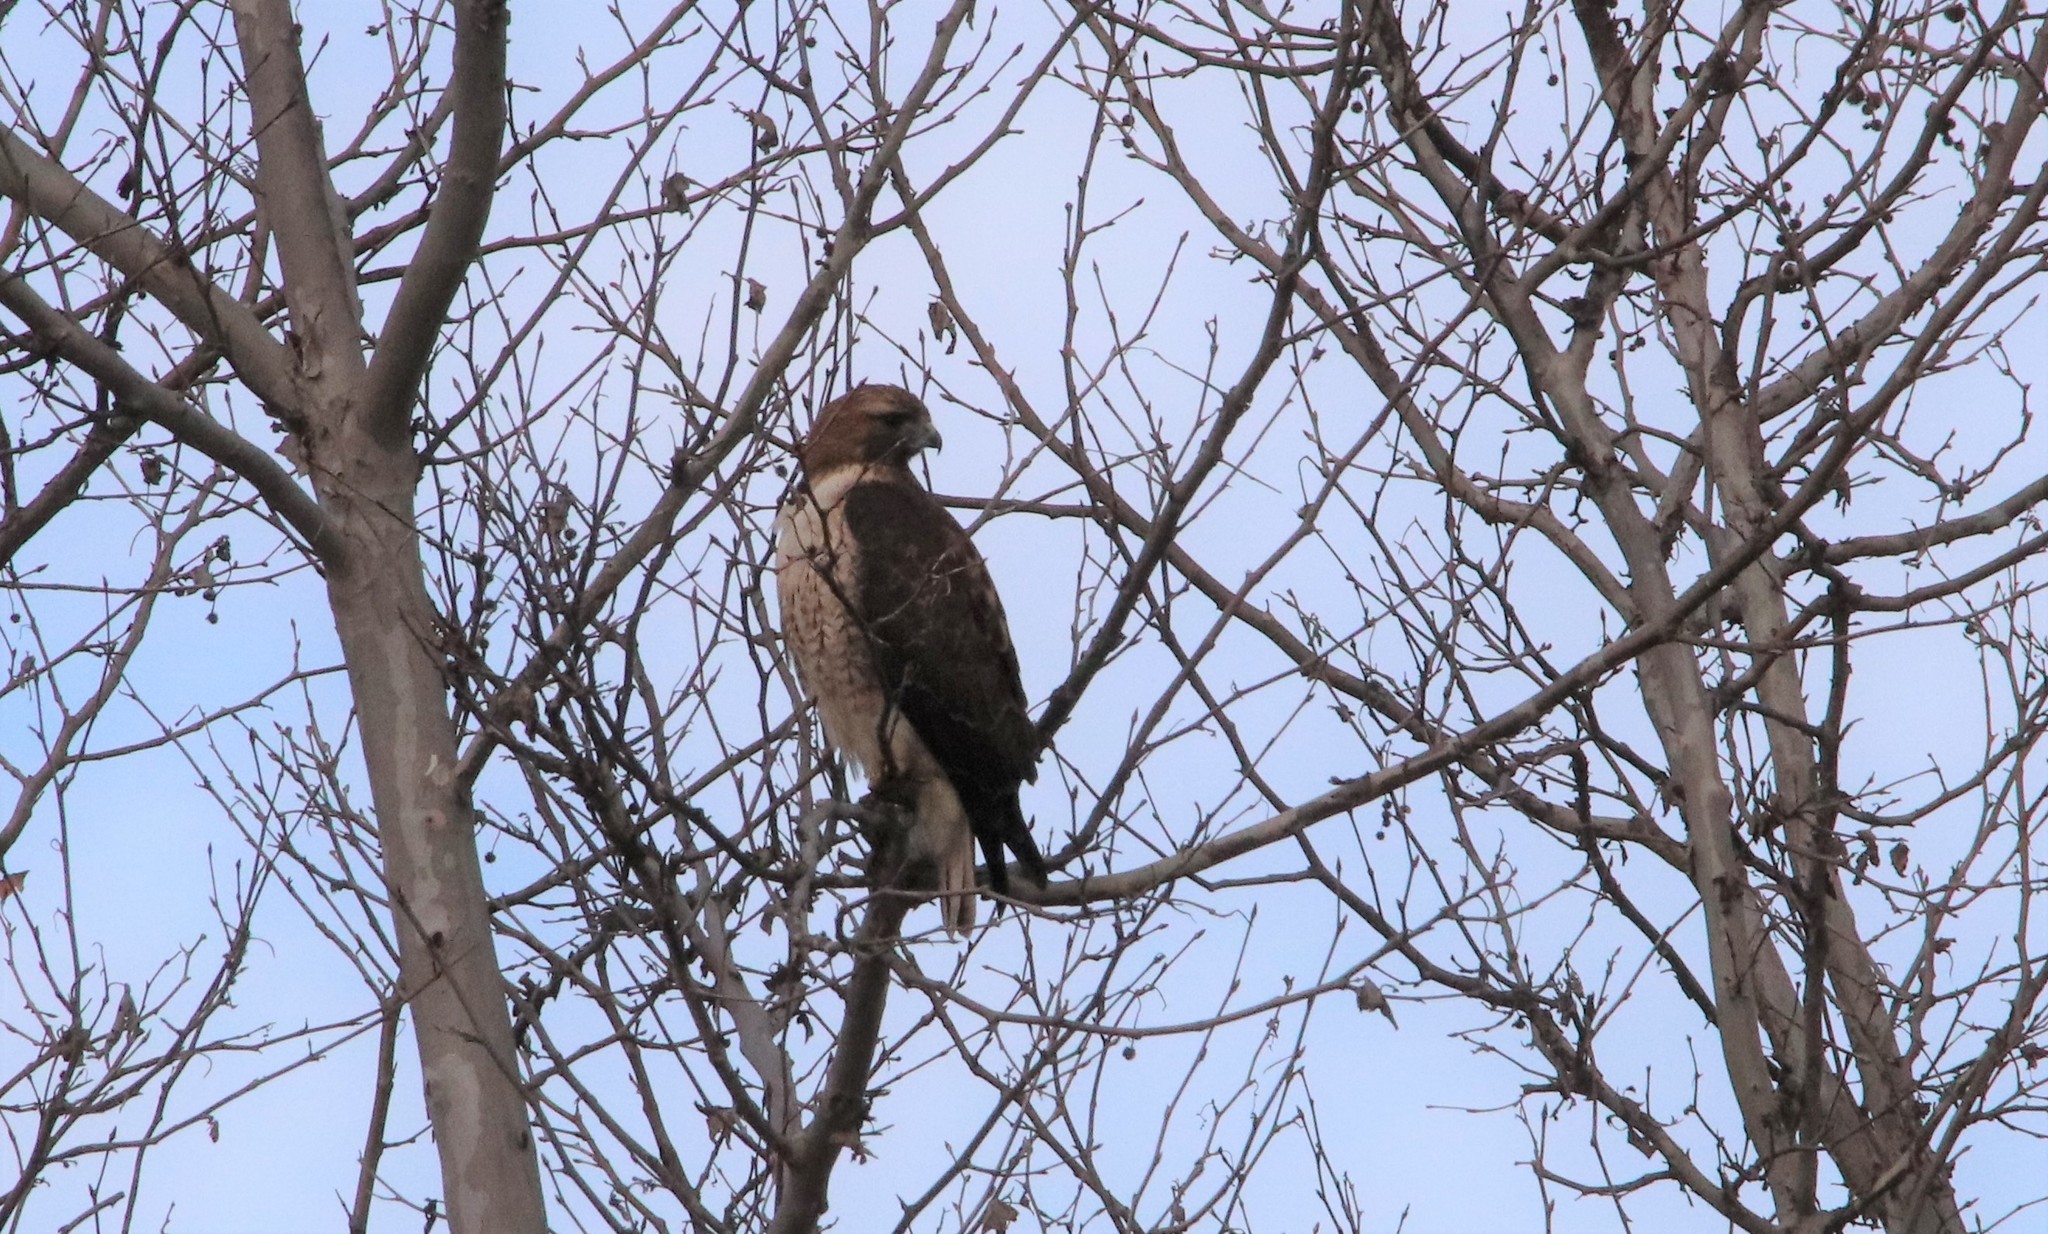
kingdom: Animalia
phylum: Chordata
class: Aves
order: Accipitriformes
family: Accipitridae
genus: Buteo
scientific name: Buteo jamaicensis
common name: Red-tailed hawk
